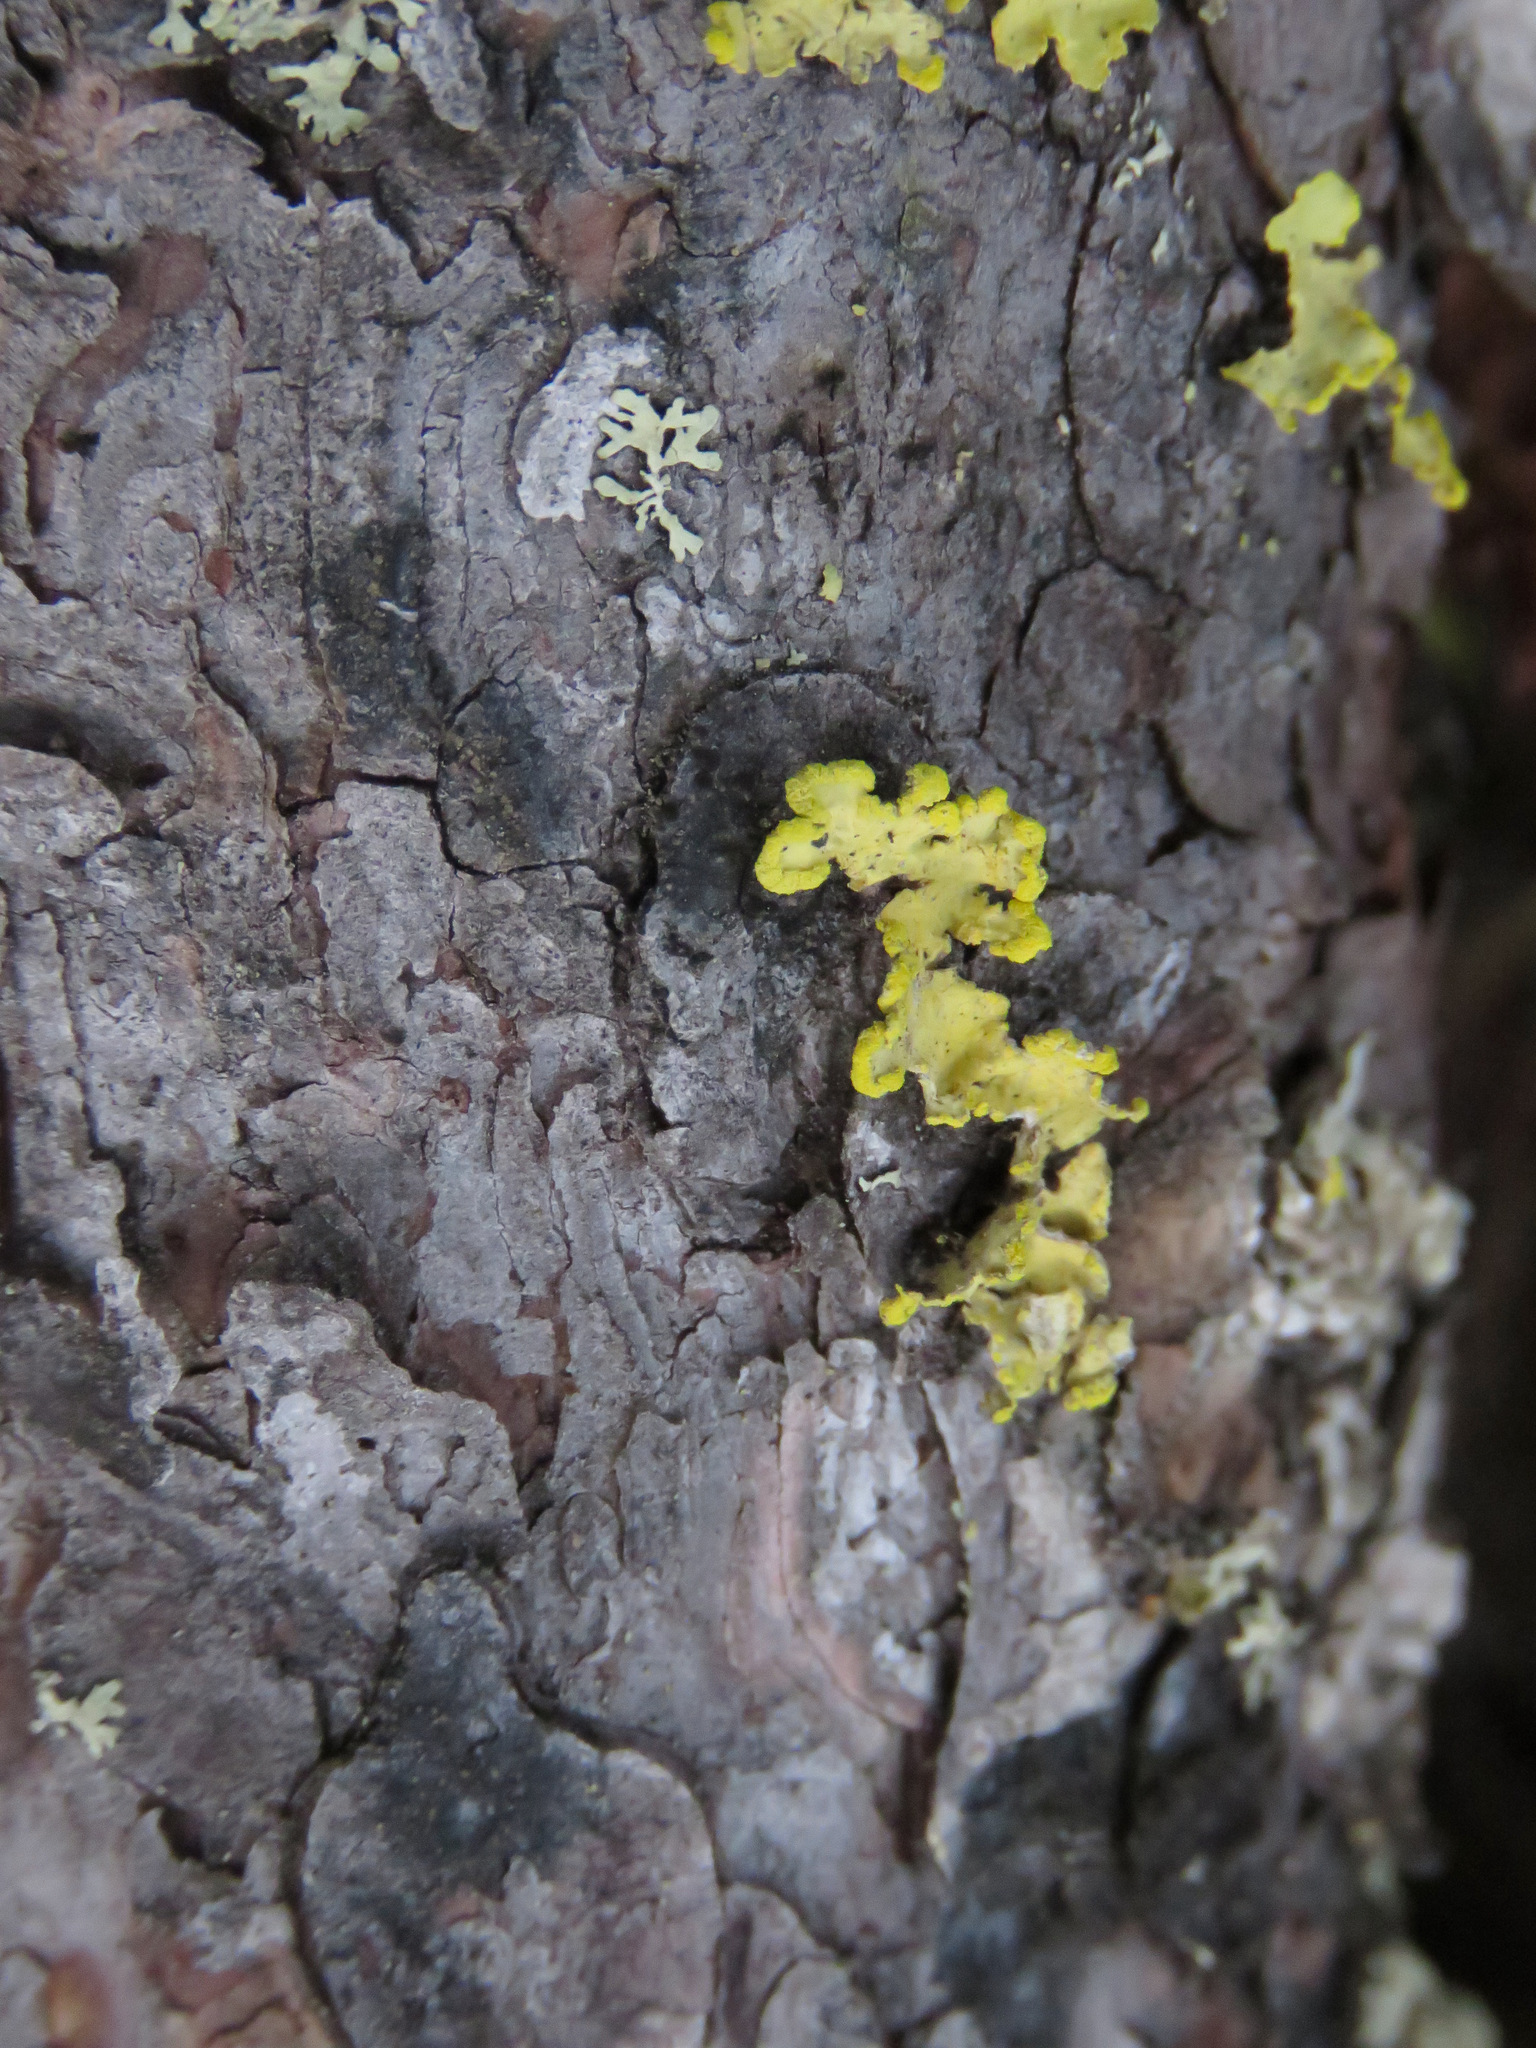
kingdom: Fungi
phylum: Ascomycota
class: Lecanoromycetes
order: Lecanorales
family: Parmeliaceae
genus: Vulpicida
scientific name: Vulpicida pinastri
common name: Powdered sunshine lichen
